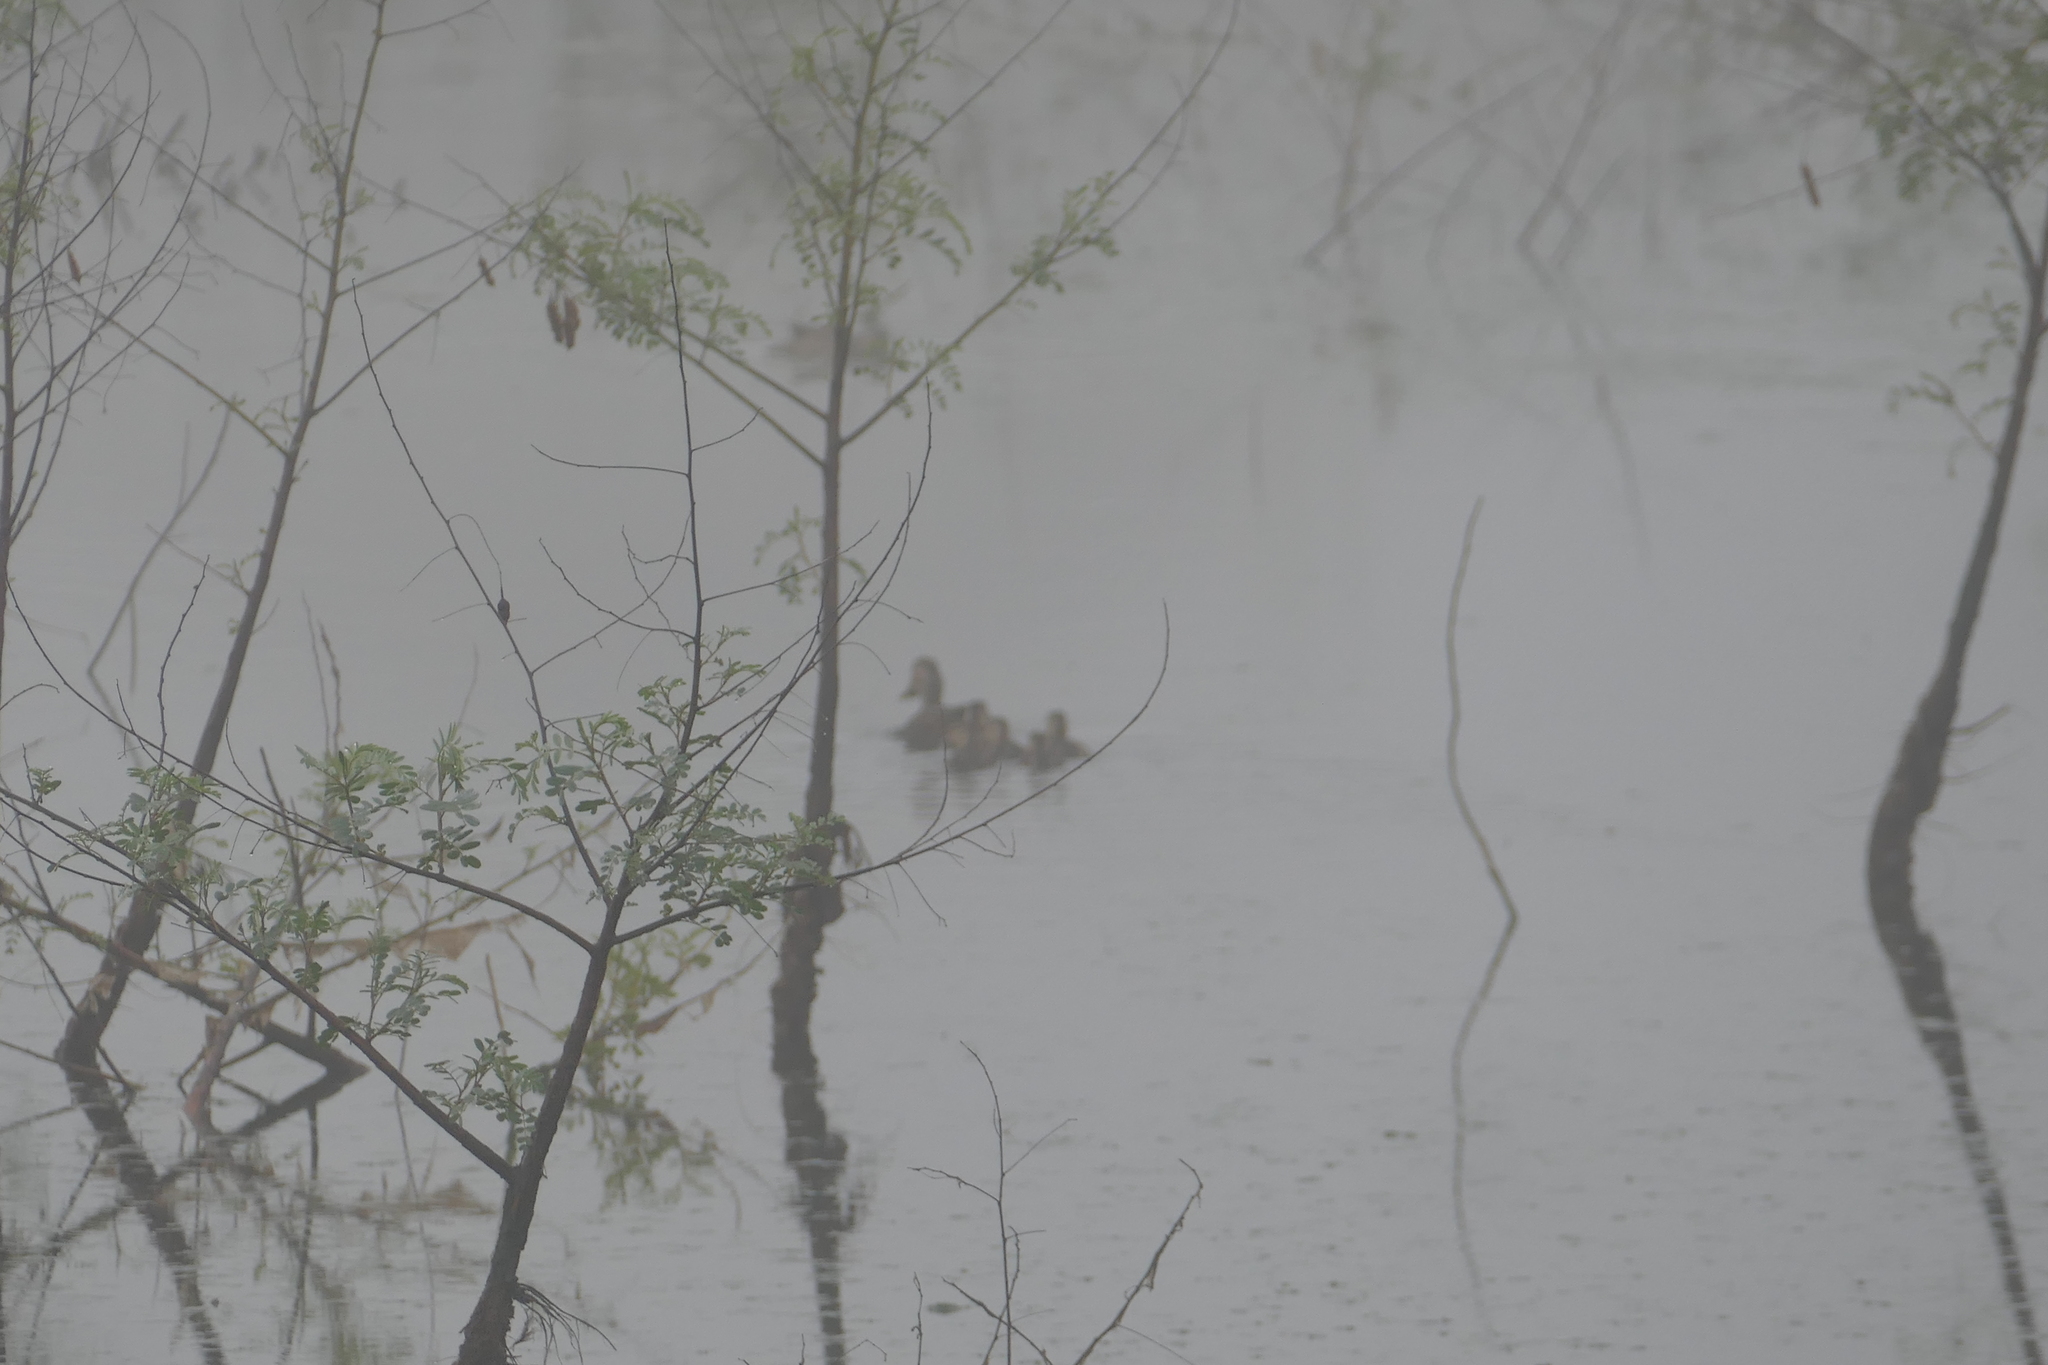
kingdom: Animalia
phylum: Chordata
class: Aves
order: Anseriformes
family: Anatidae
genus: Anas
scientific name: Anas fulvigula
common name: Mottled duck
